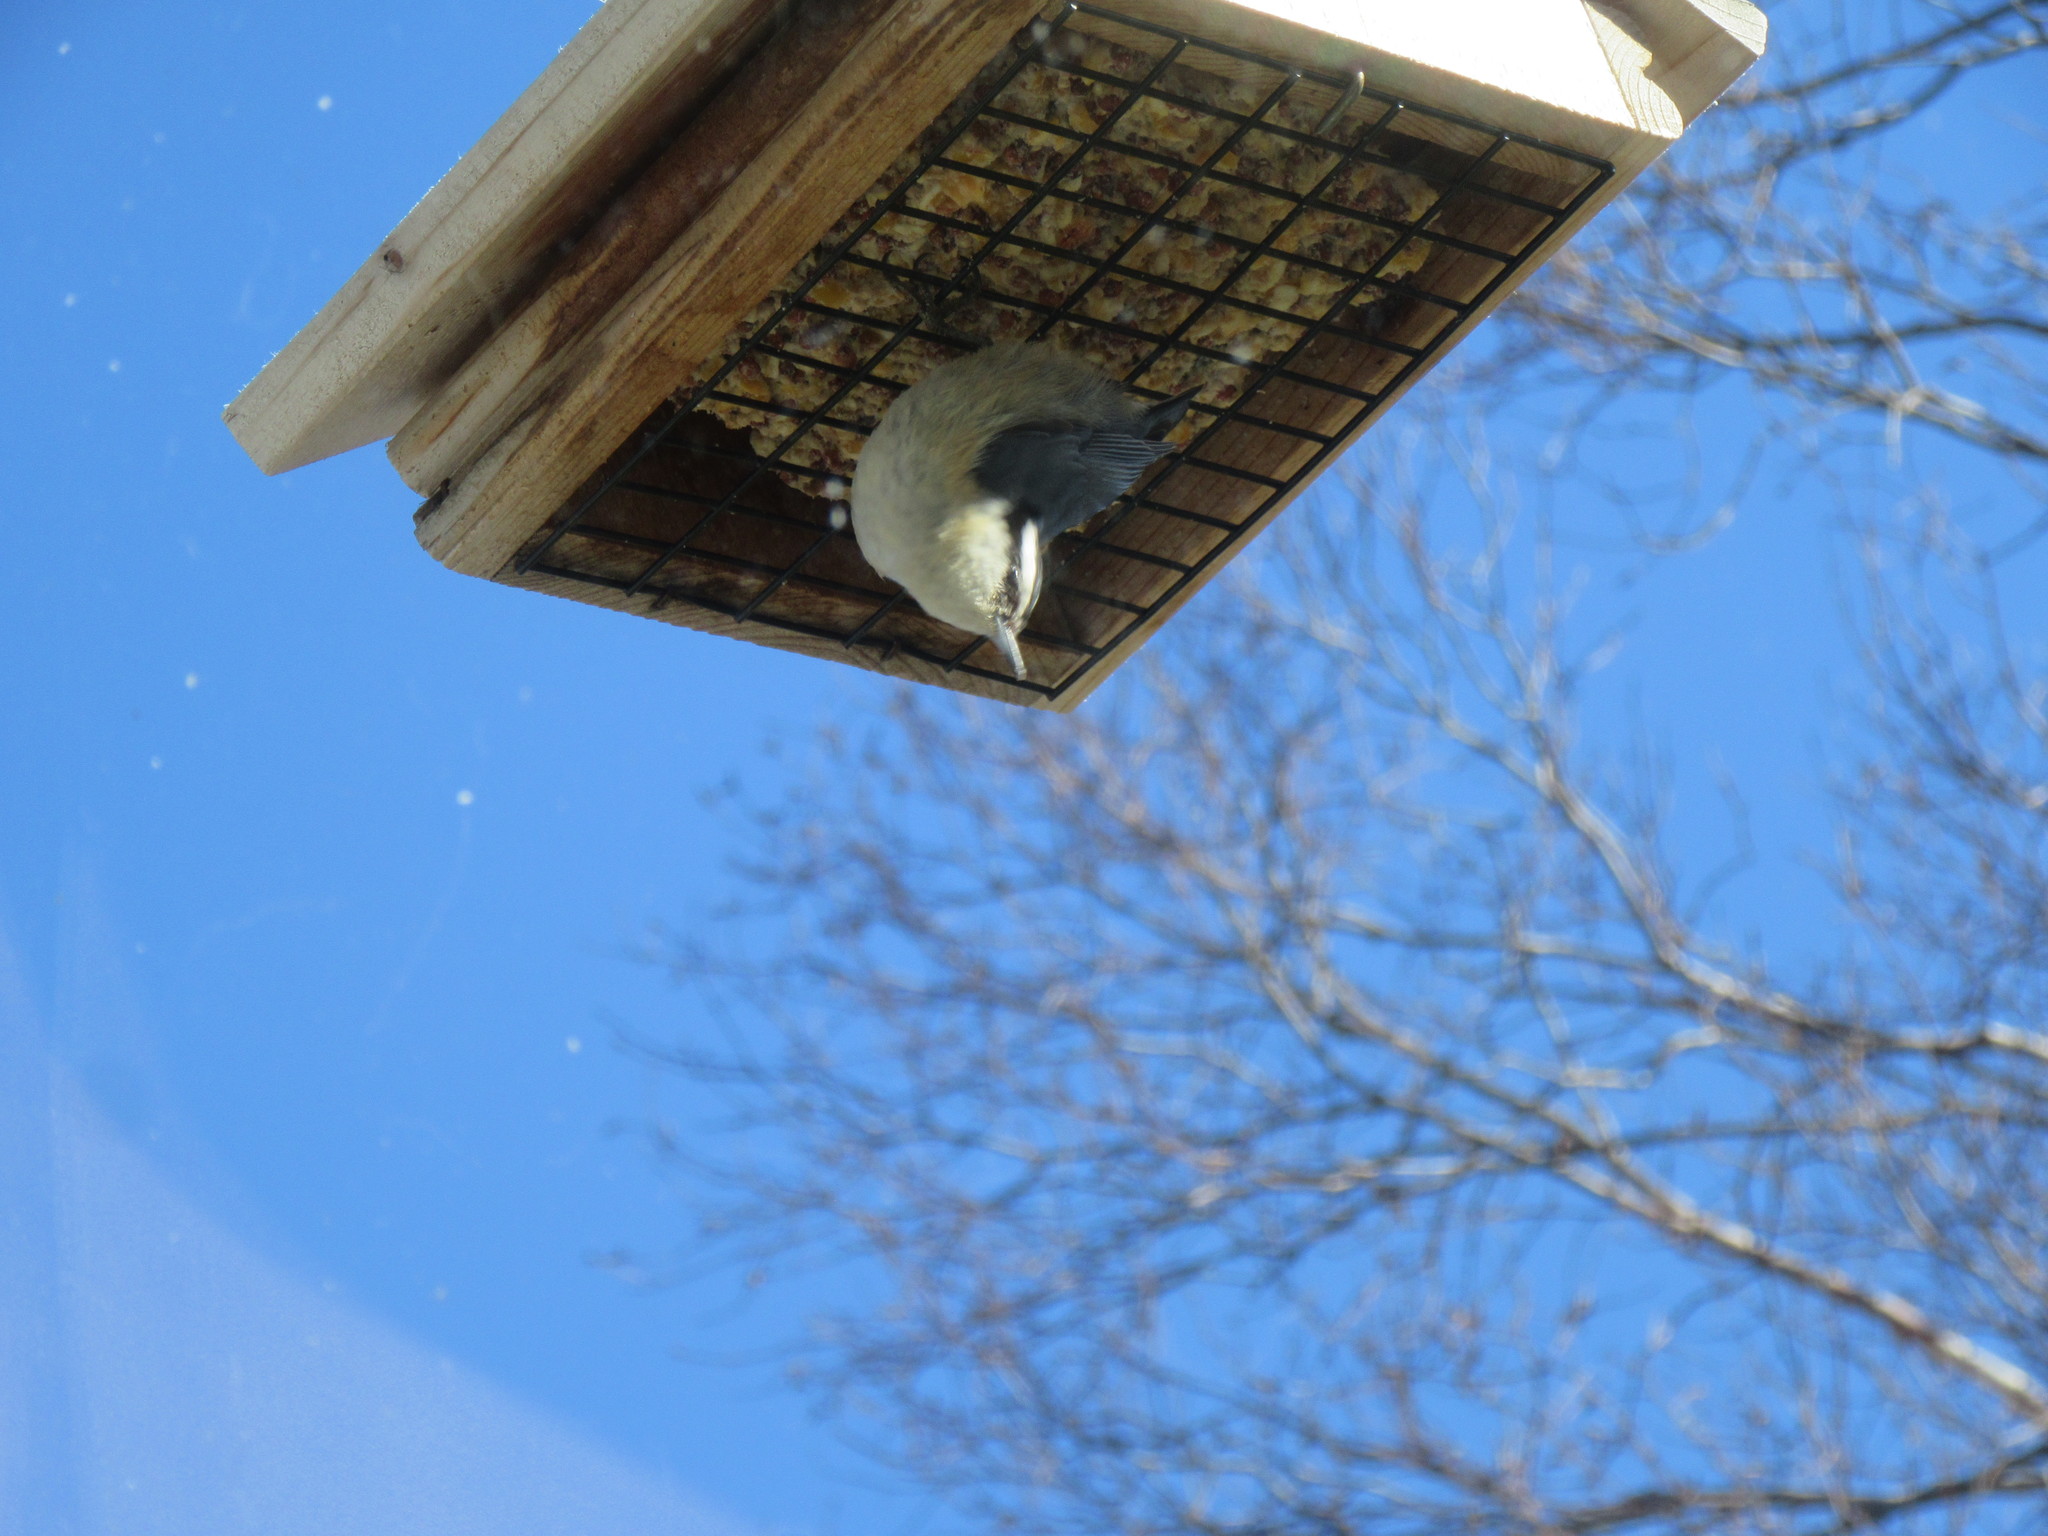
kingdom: Animalia
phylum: Chordata
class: Aves
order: Passeriformes
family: Sittidae
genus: Sitta
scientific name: Sitta canadensis
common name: Red-breasted nuthatch
